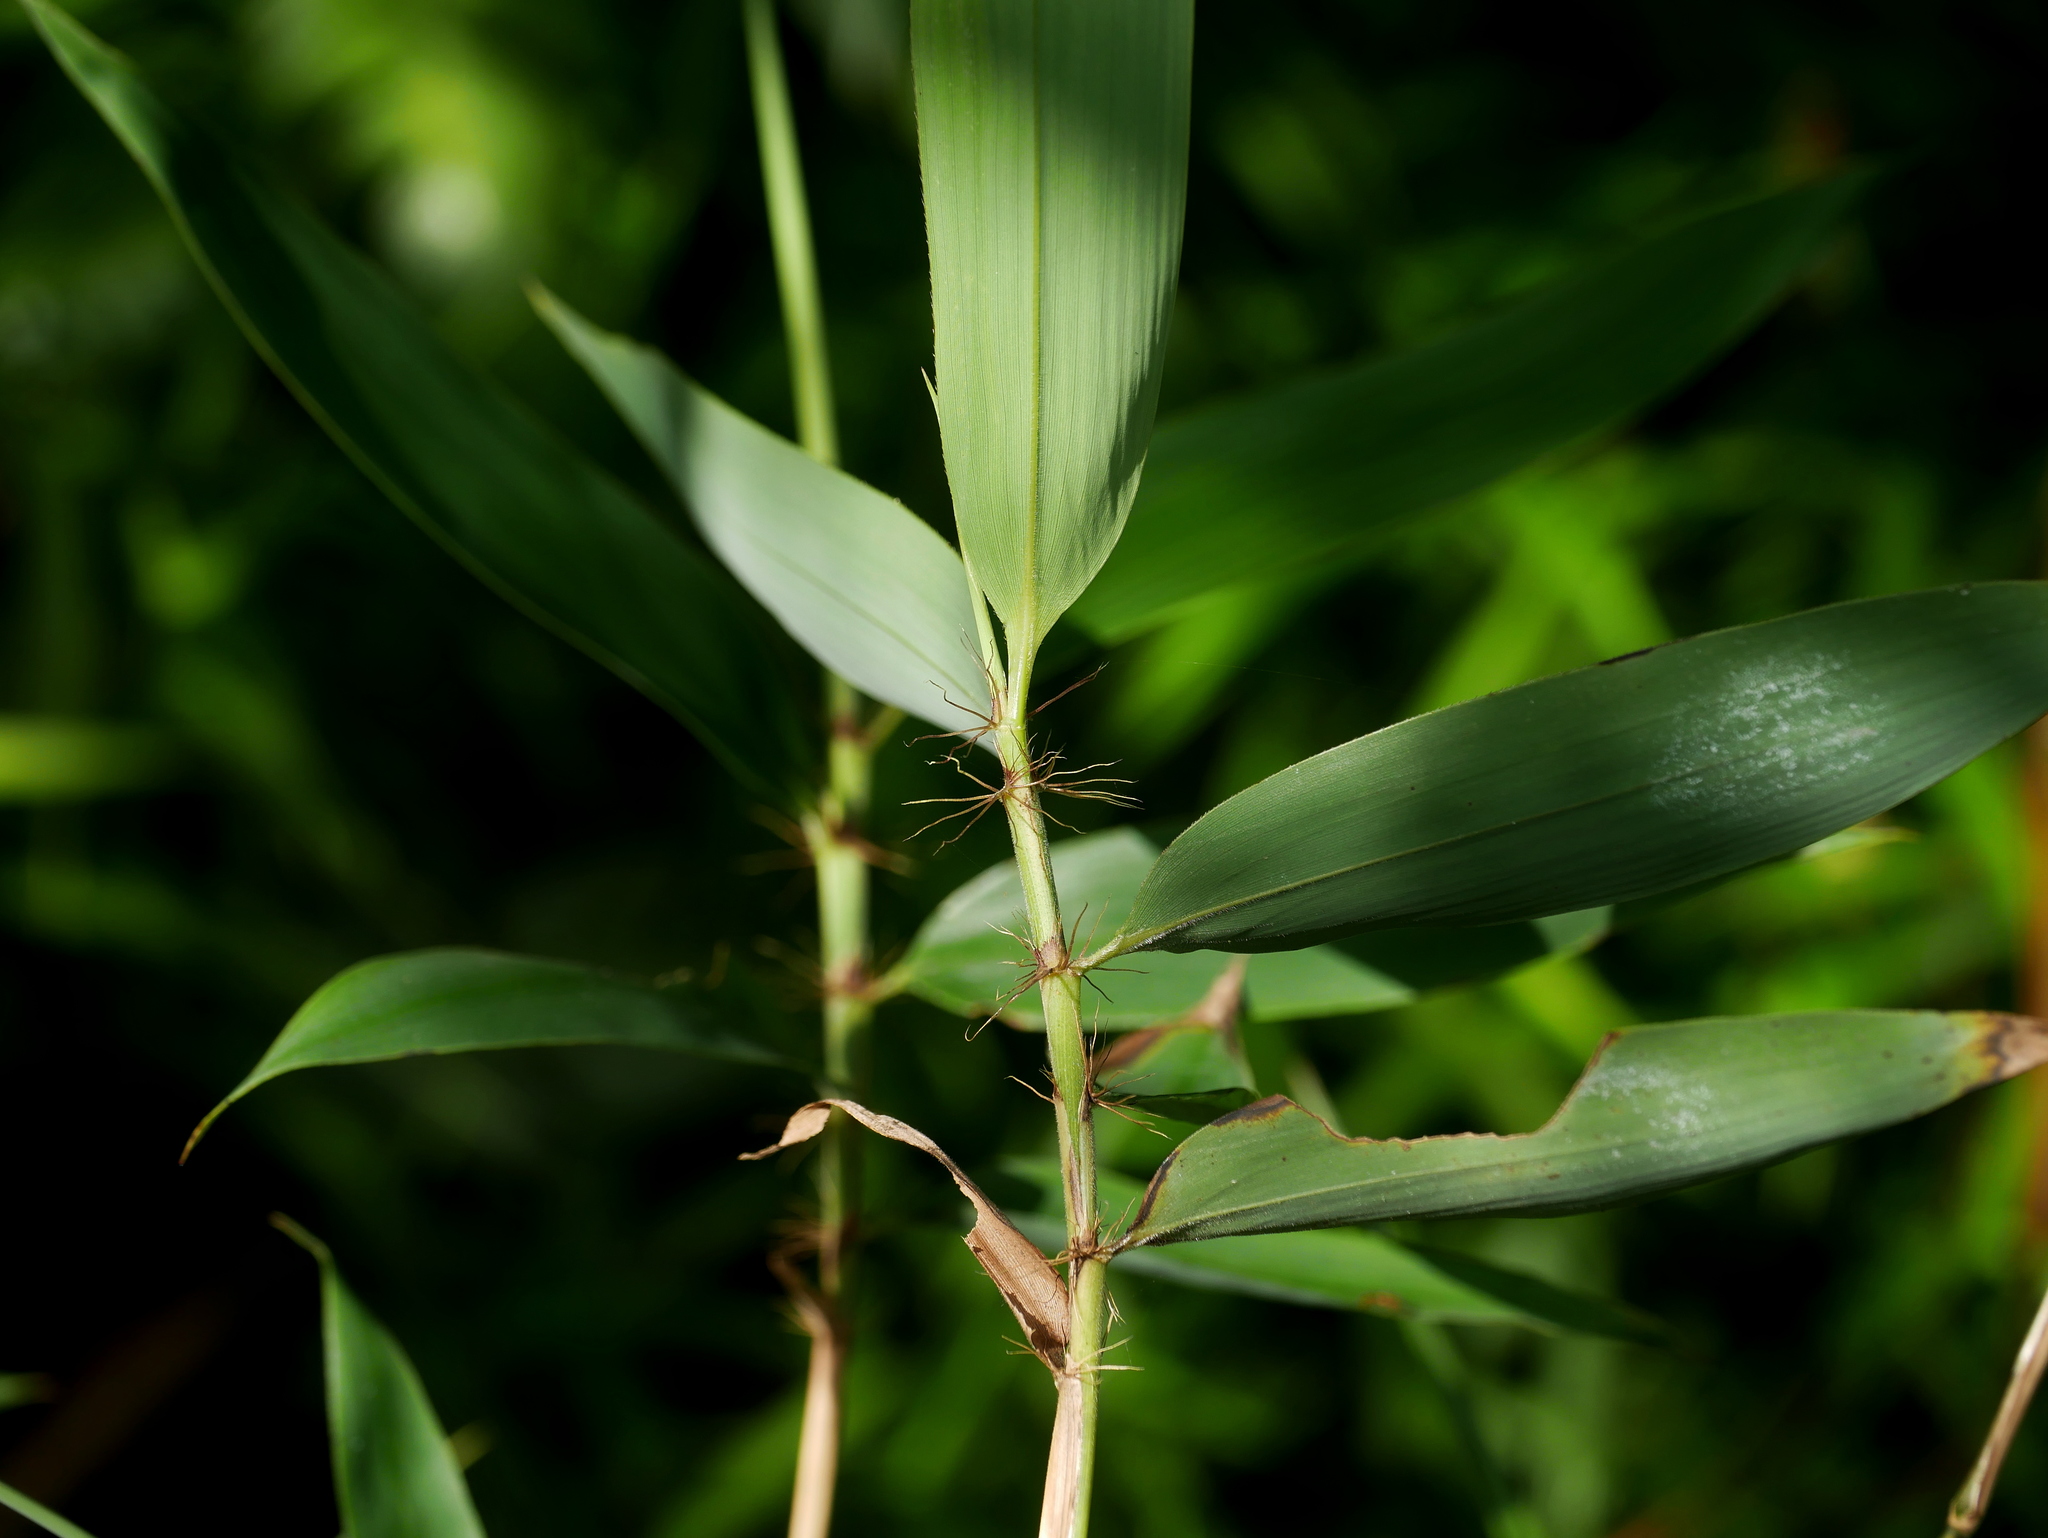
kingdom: Plantae
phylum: Tracheophyta
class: Liliopsida
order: Poales
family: Poaceae
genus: Bambusa
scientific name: Bambusa pachinensis
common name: Pachi bamboo
